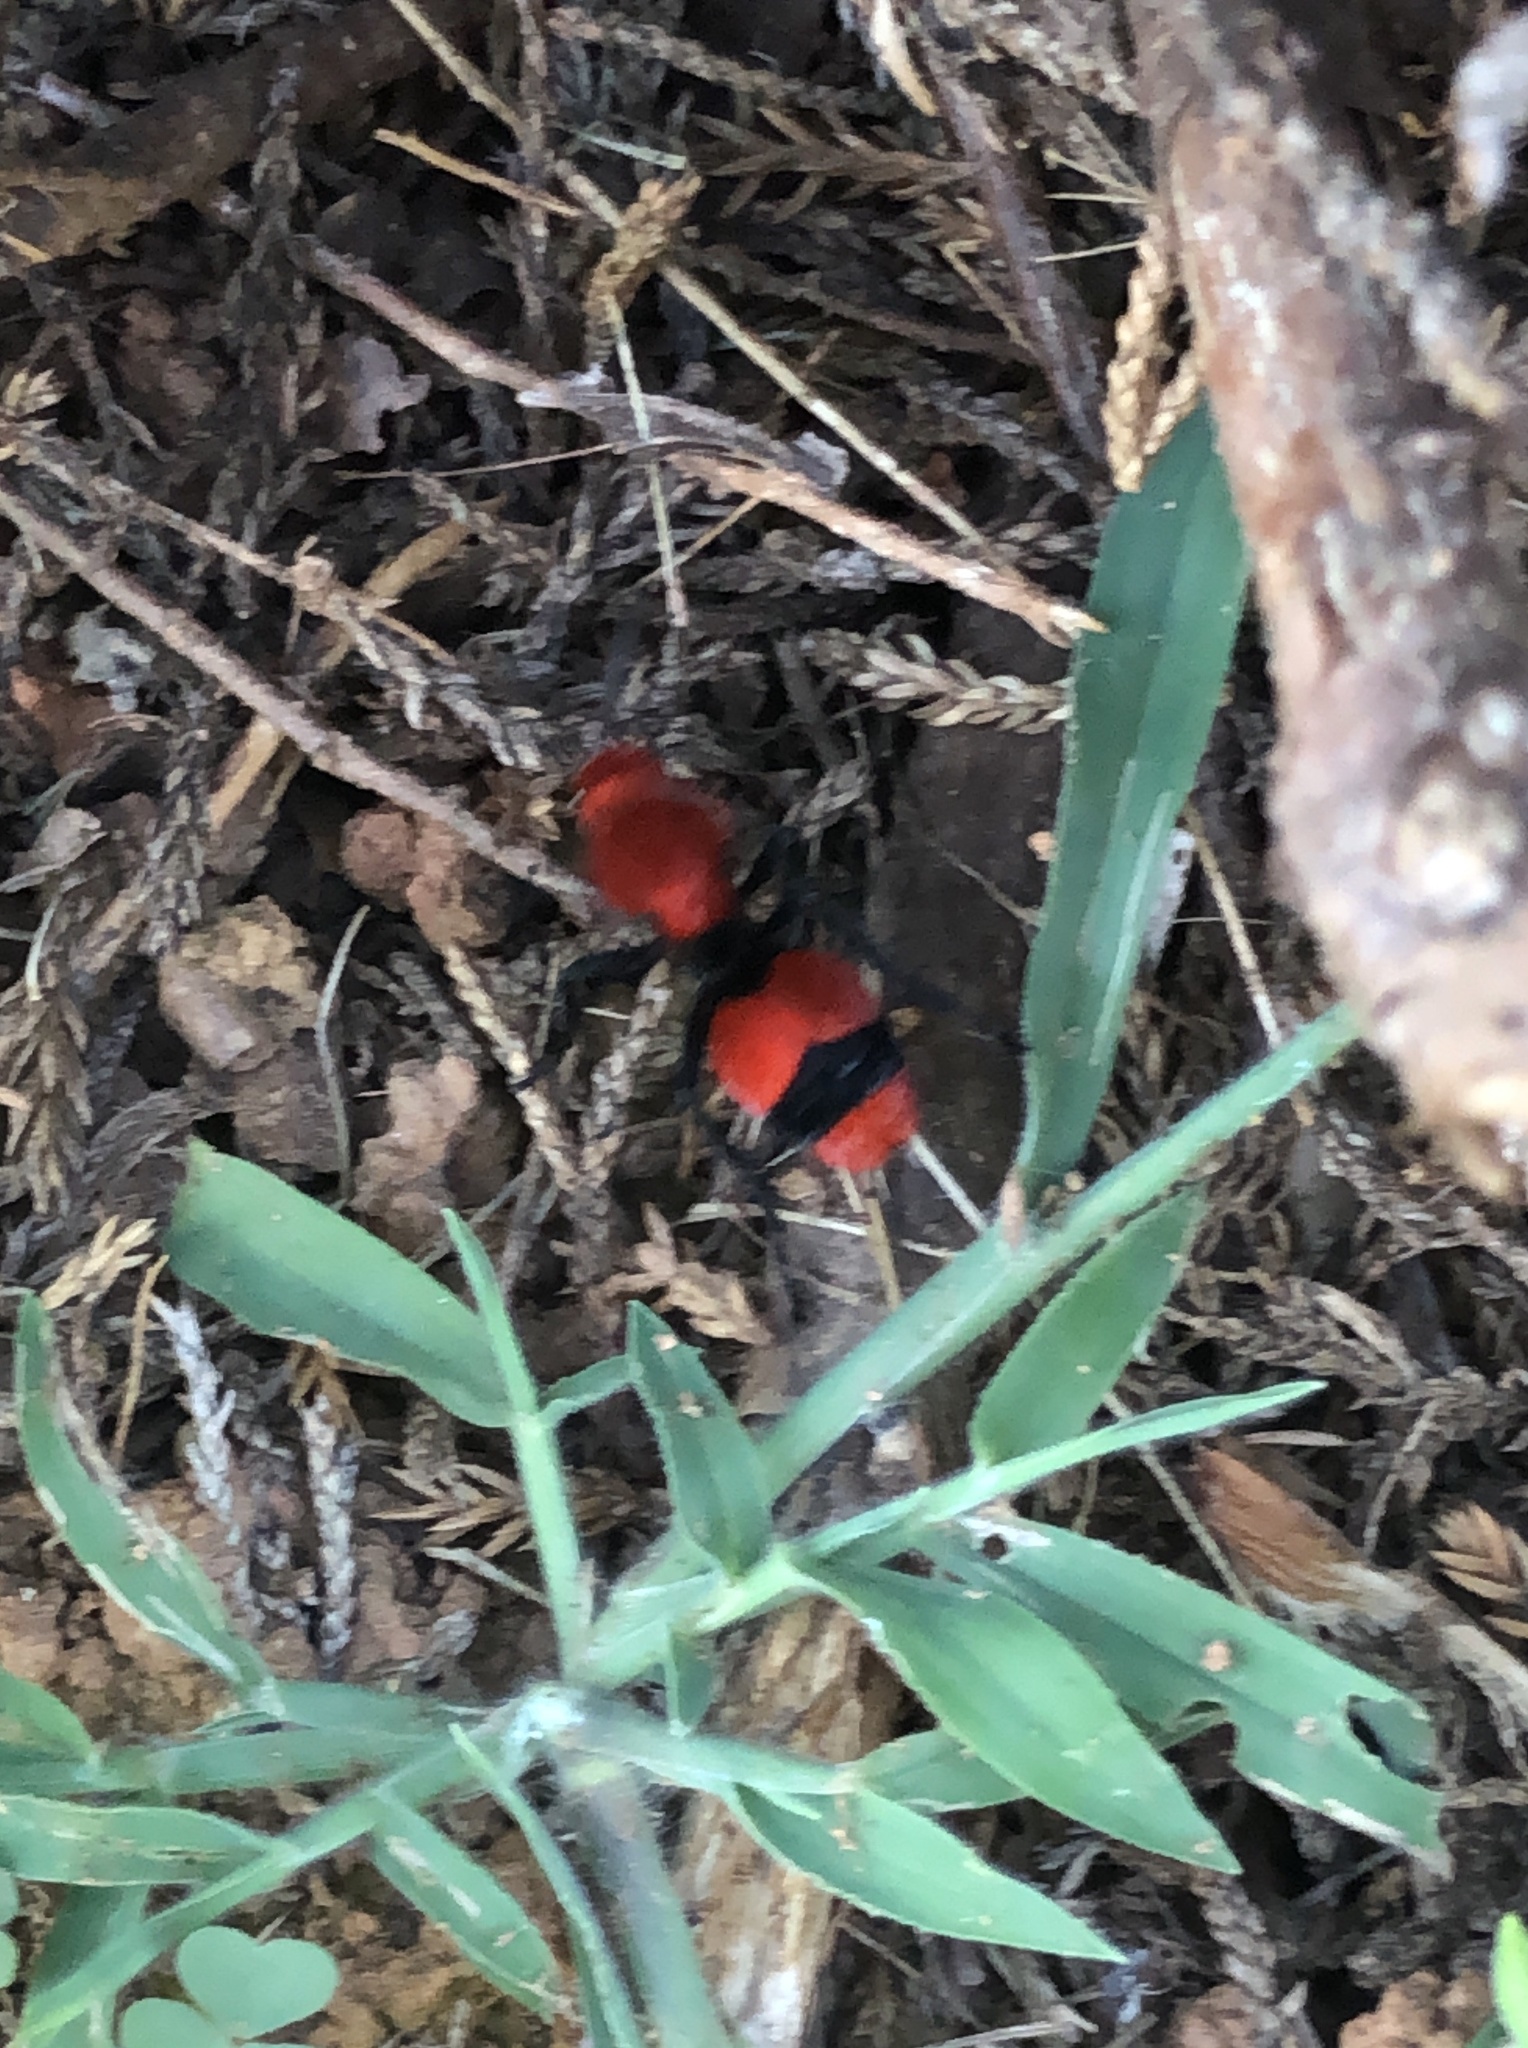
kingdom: Animalia
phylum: Arthropoda
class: Insecta
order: Hymenoptera
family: Mutillidae
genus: Dasymutilla
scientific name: Dasymutilla occidentalis
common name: Common eastern velvet ant
